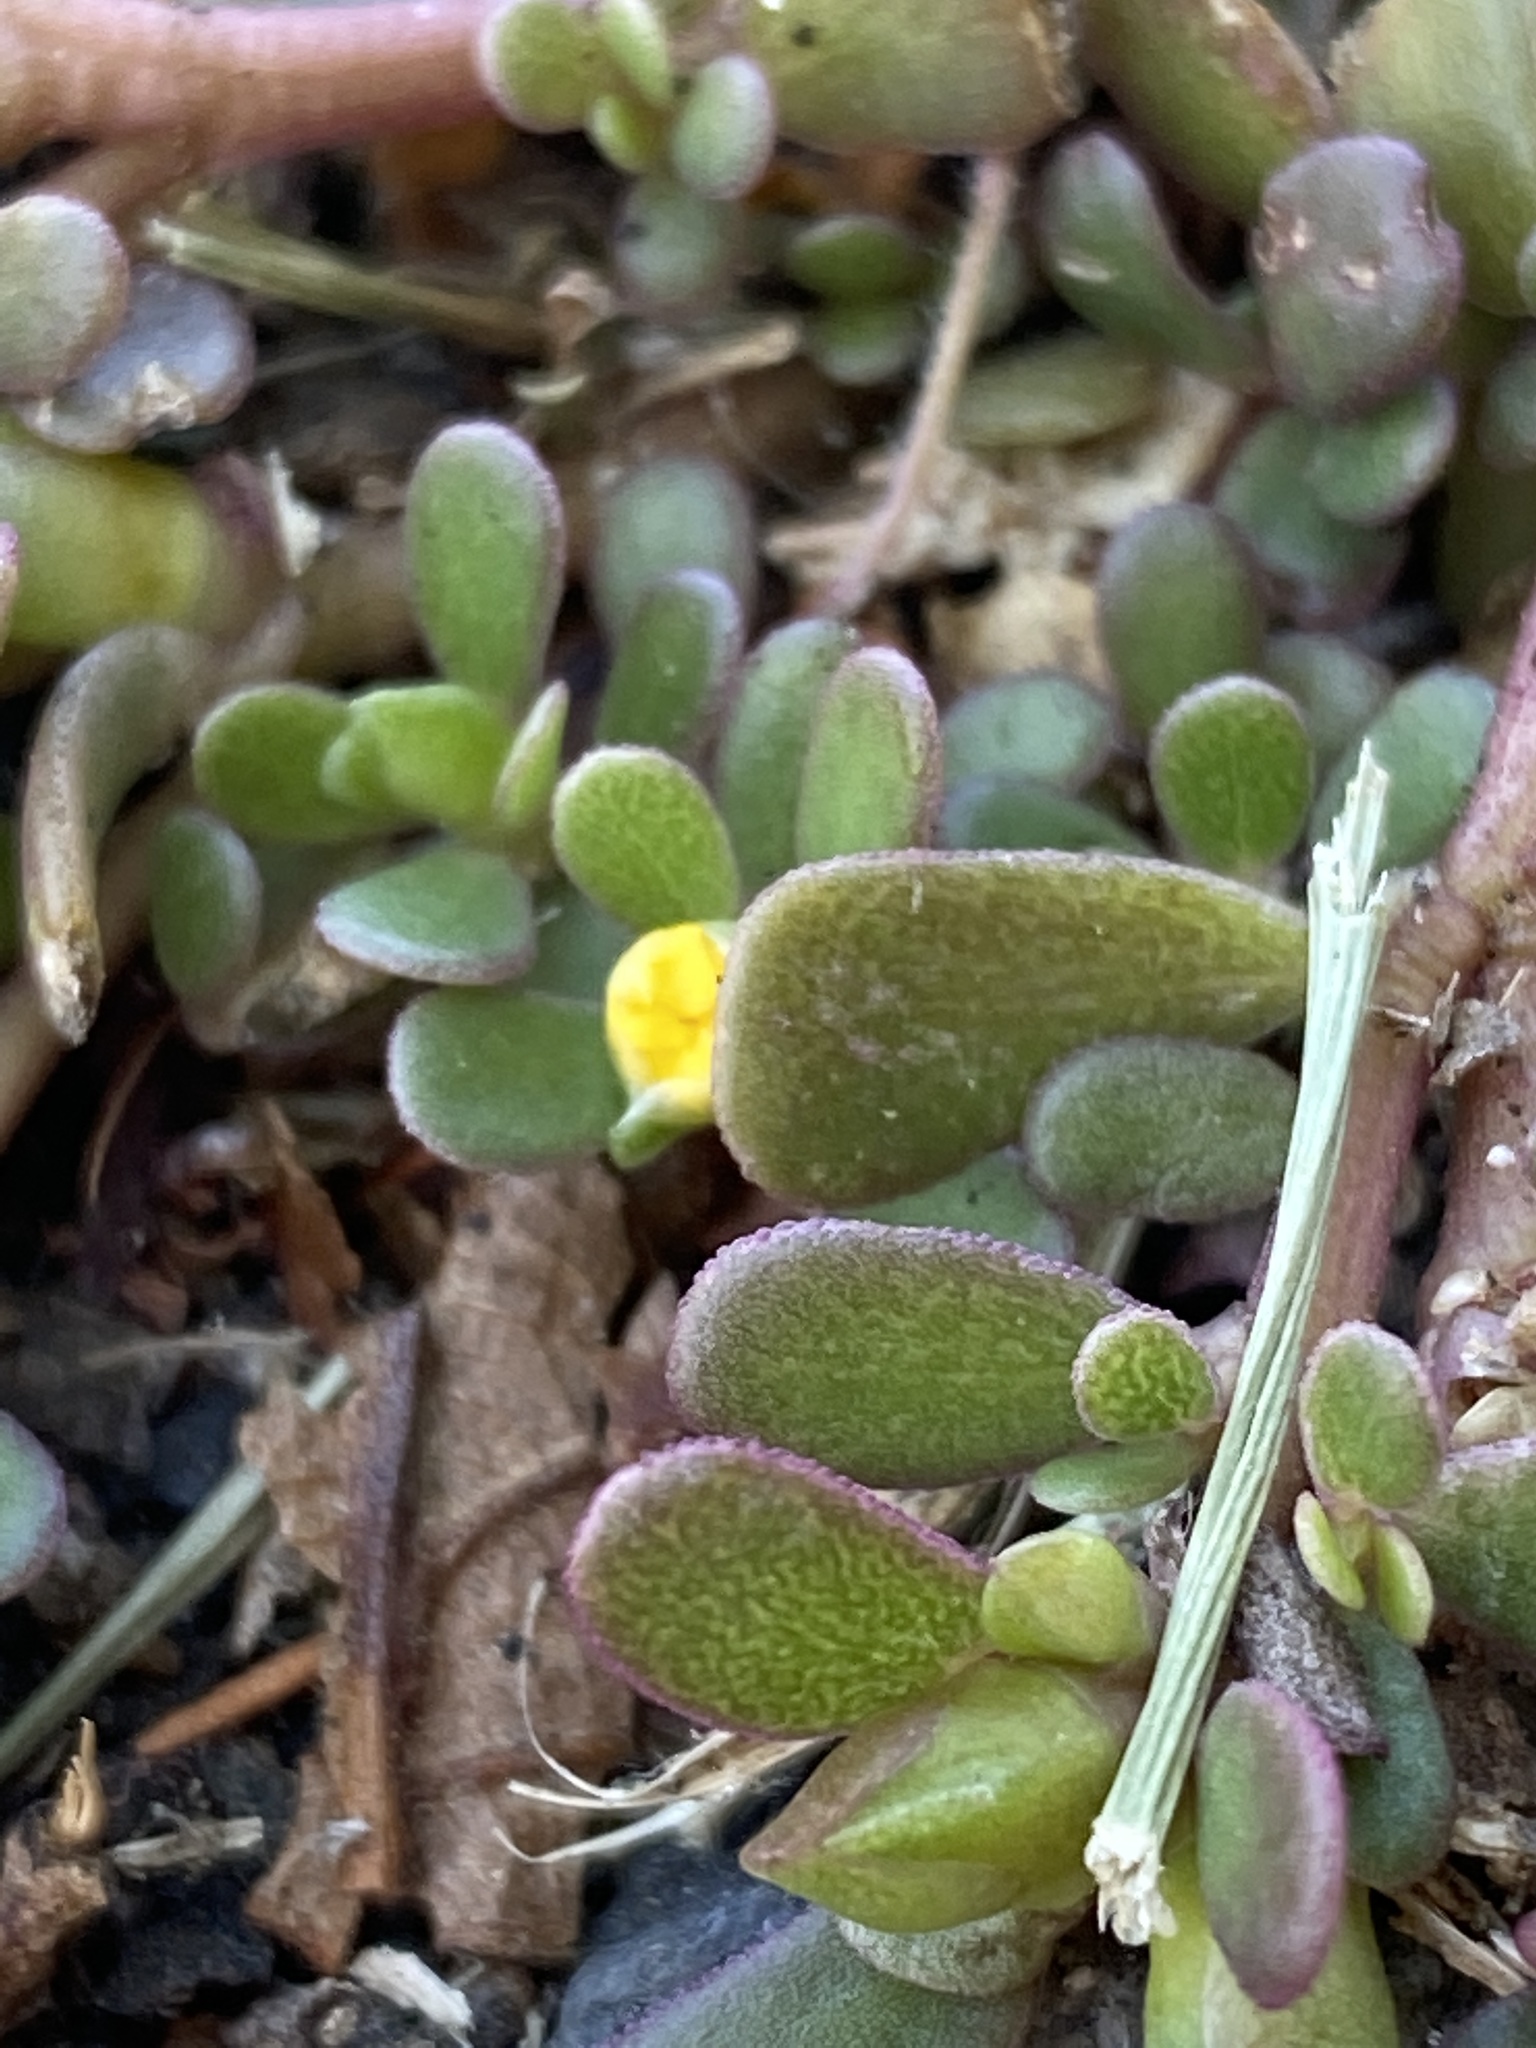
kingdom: Plantae
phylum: Tracheophyta
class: Magnoliopsida
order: Caryophyllales
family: Portulacaceae
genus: Portulaca
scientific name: Portulaca oleracea
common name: Common purslane
